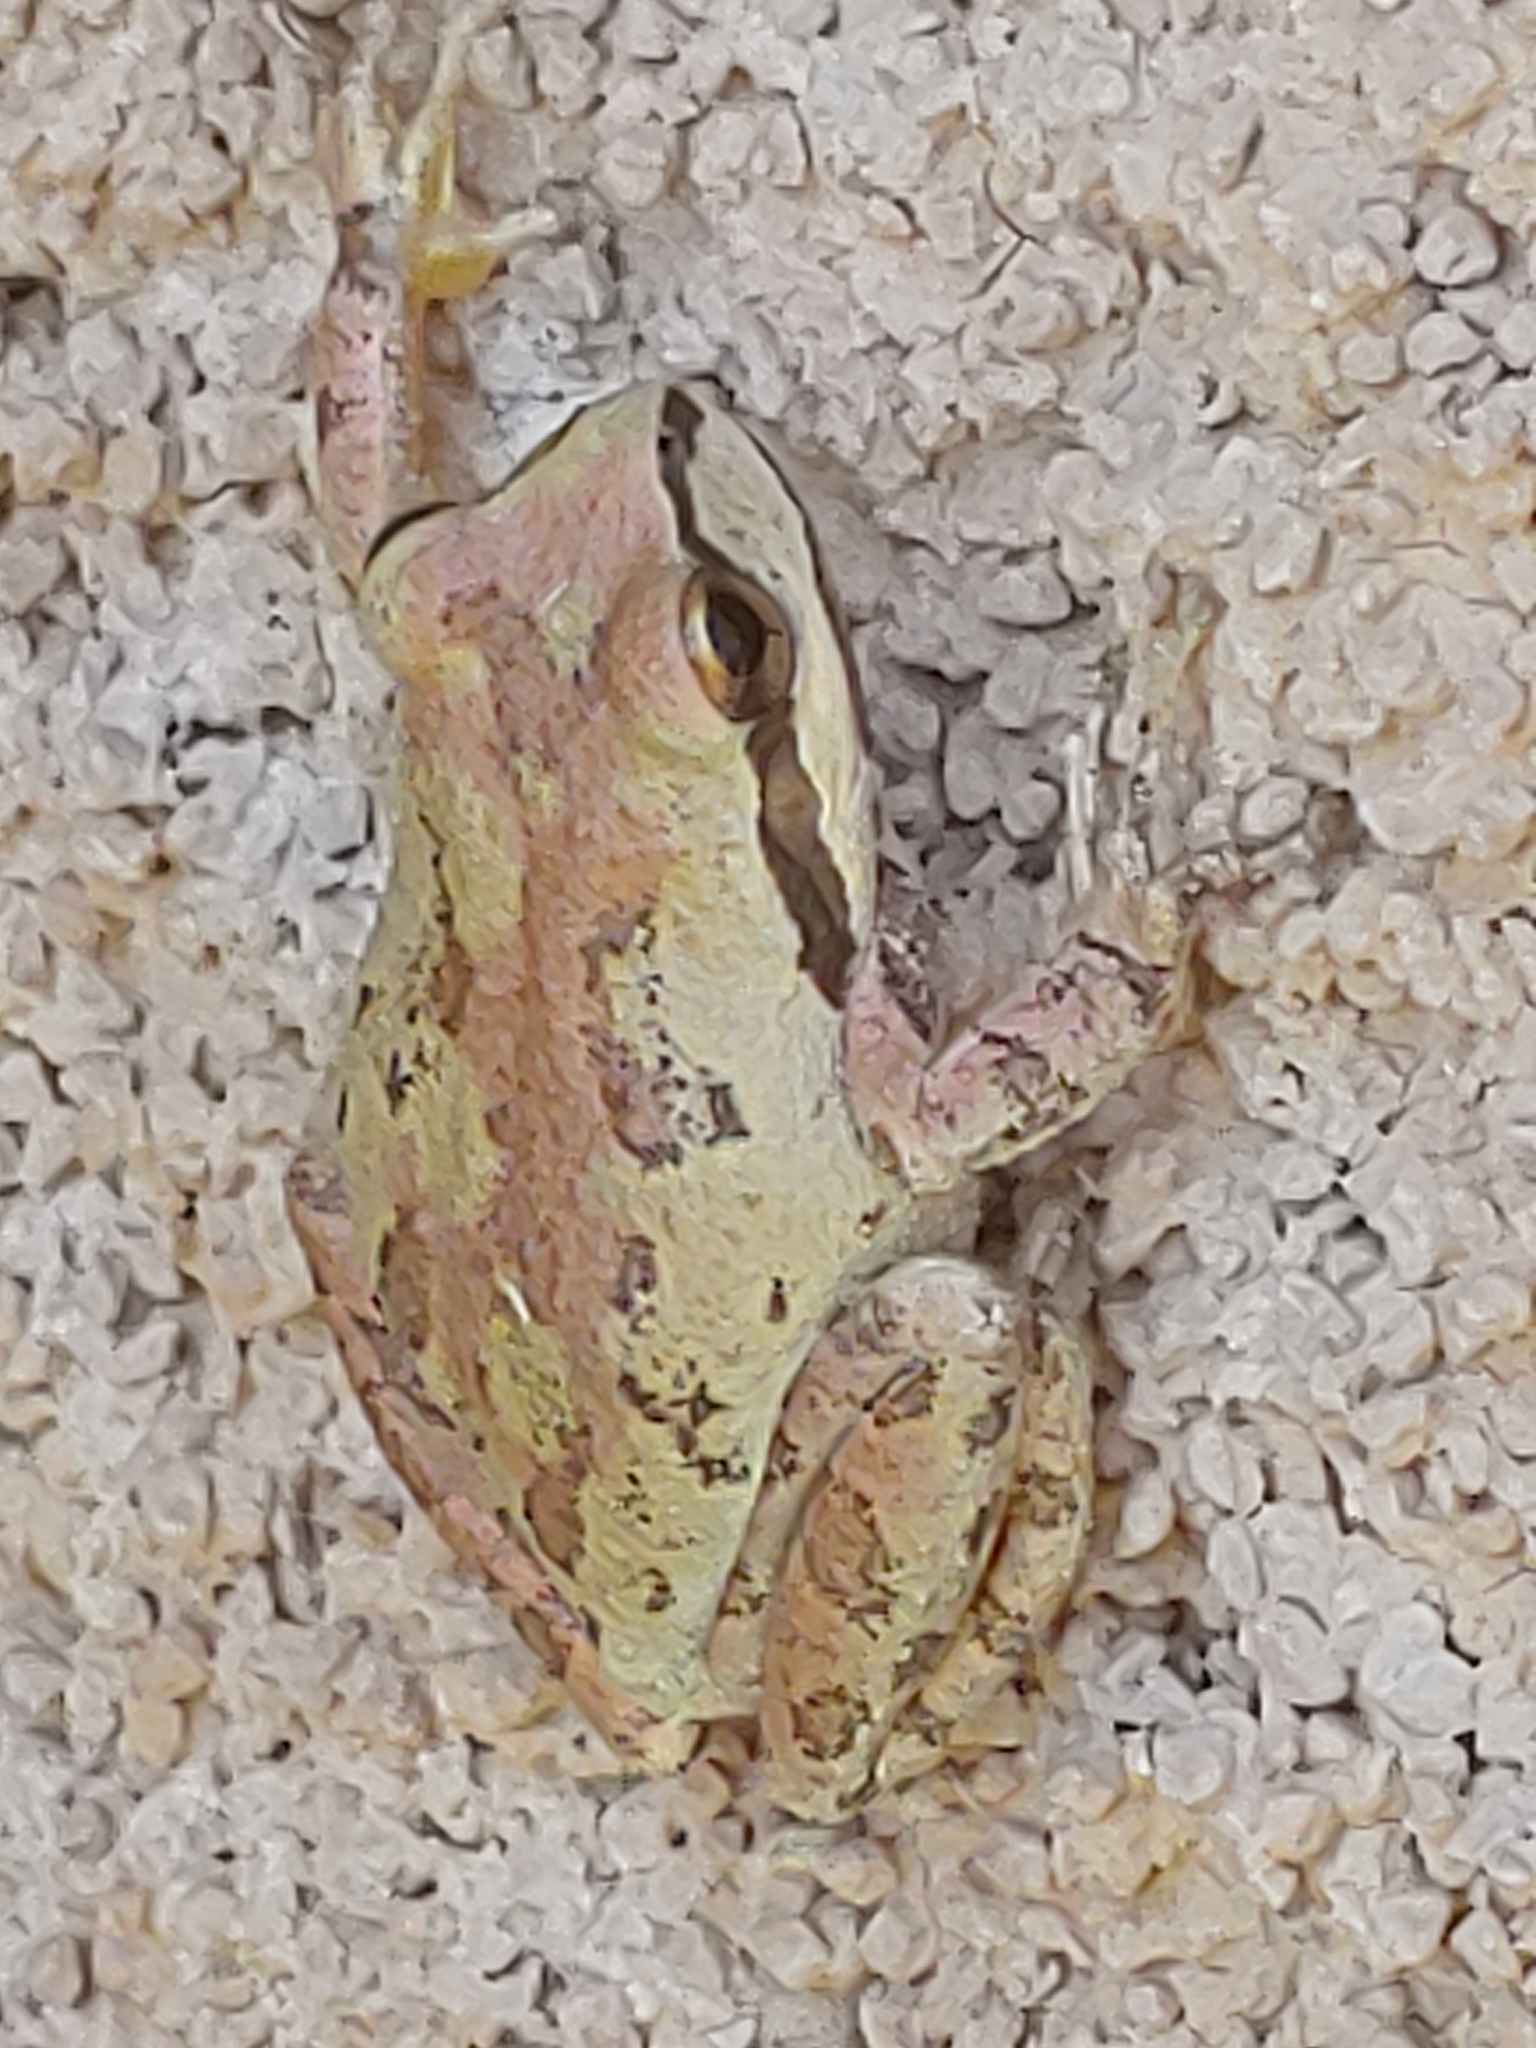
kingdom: Animalia
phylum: Chordata
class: Amphibia
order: Anura
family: Hylidae
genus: Pseudacris
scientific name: Pseudacris regilla
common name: Pacific chorus frog
